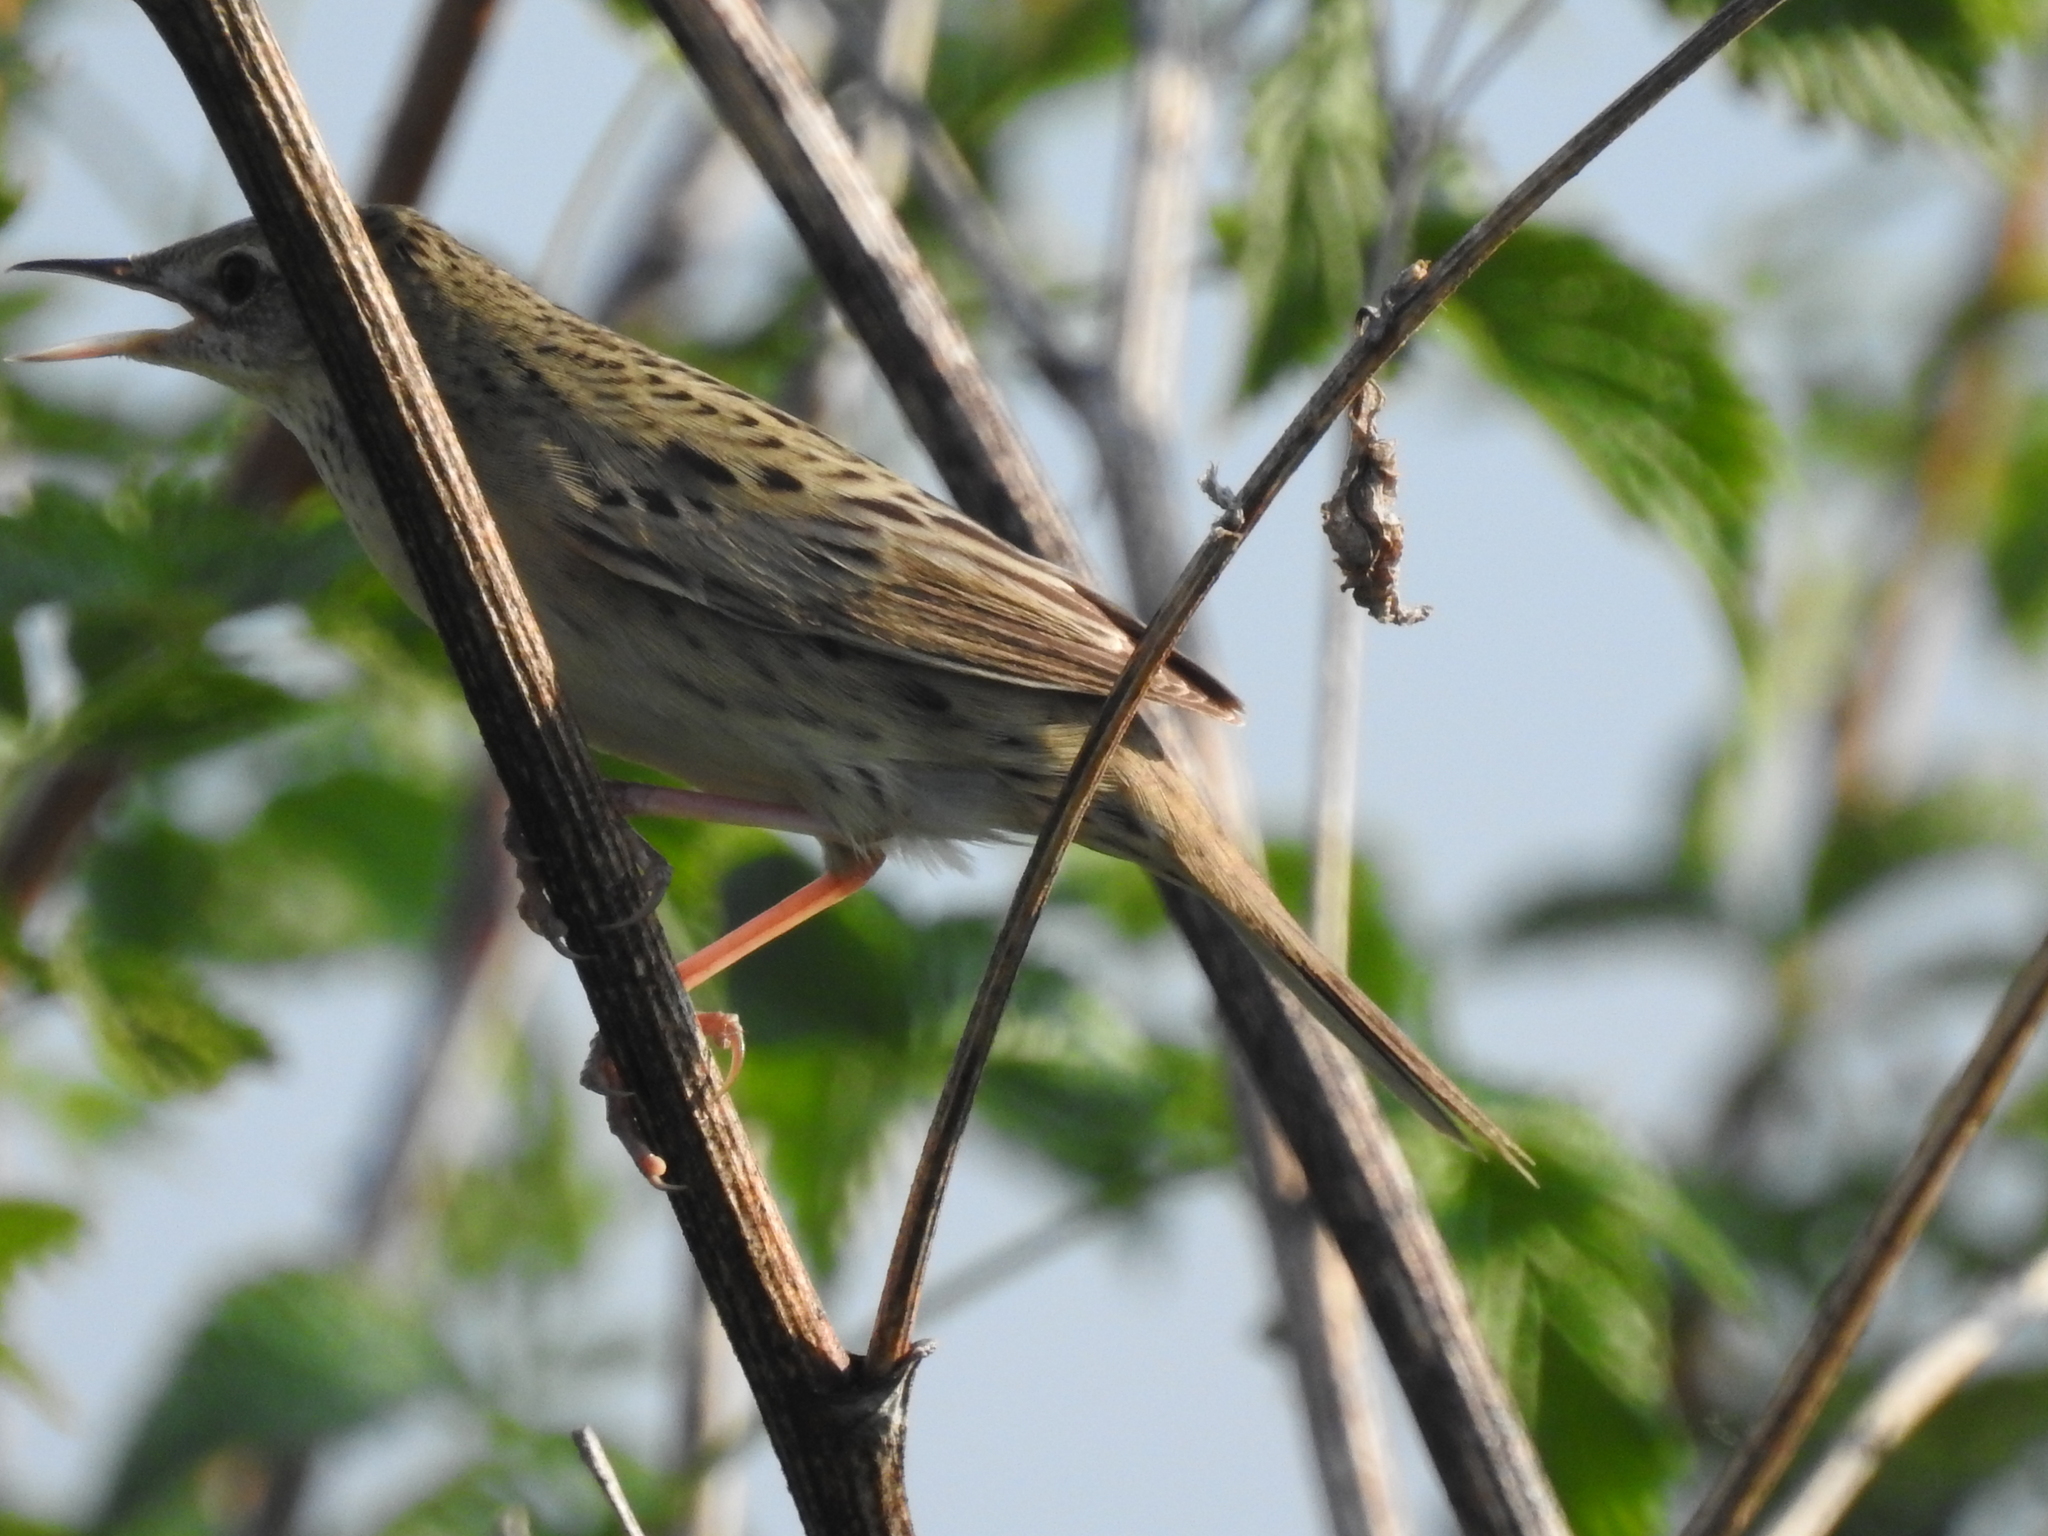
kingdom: Animalia
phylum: Chordata
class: Aves
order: Passeriformes
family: Locustellidae
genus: Locustella
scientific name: Locustella naevia
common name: Common grasshopper warbler
